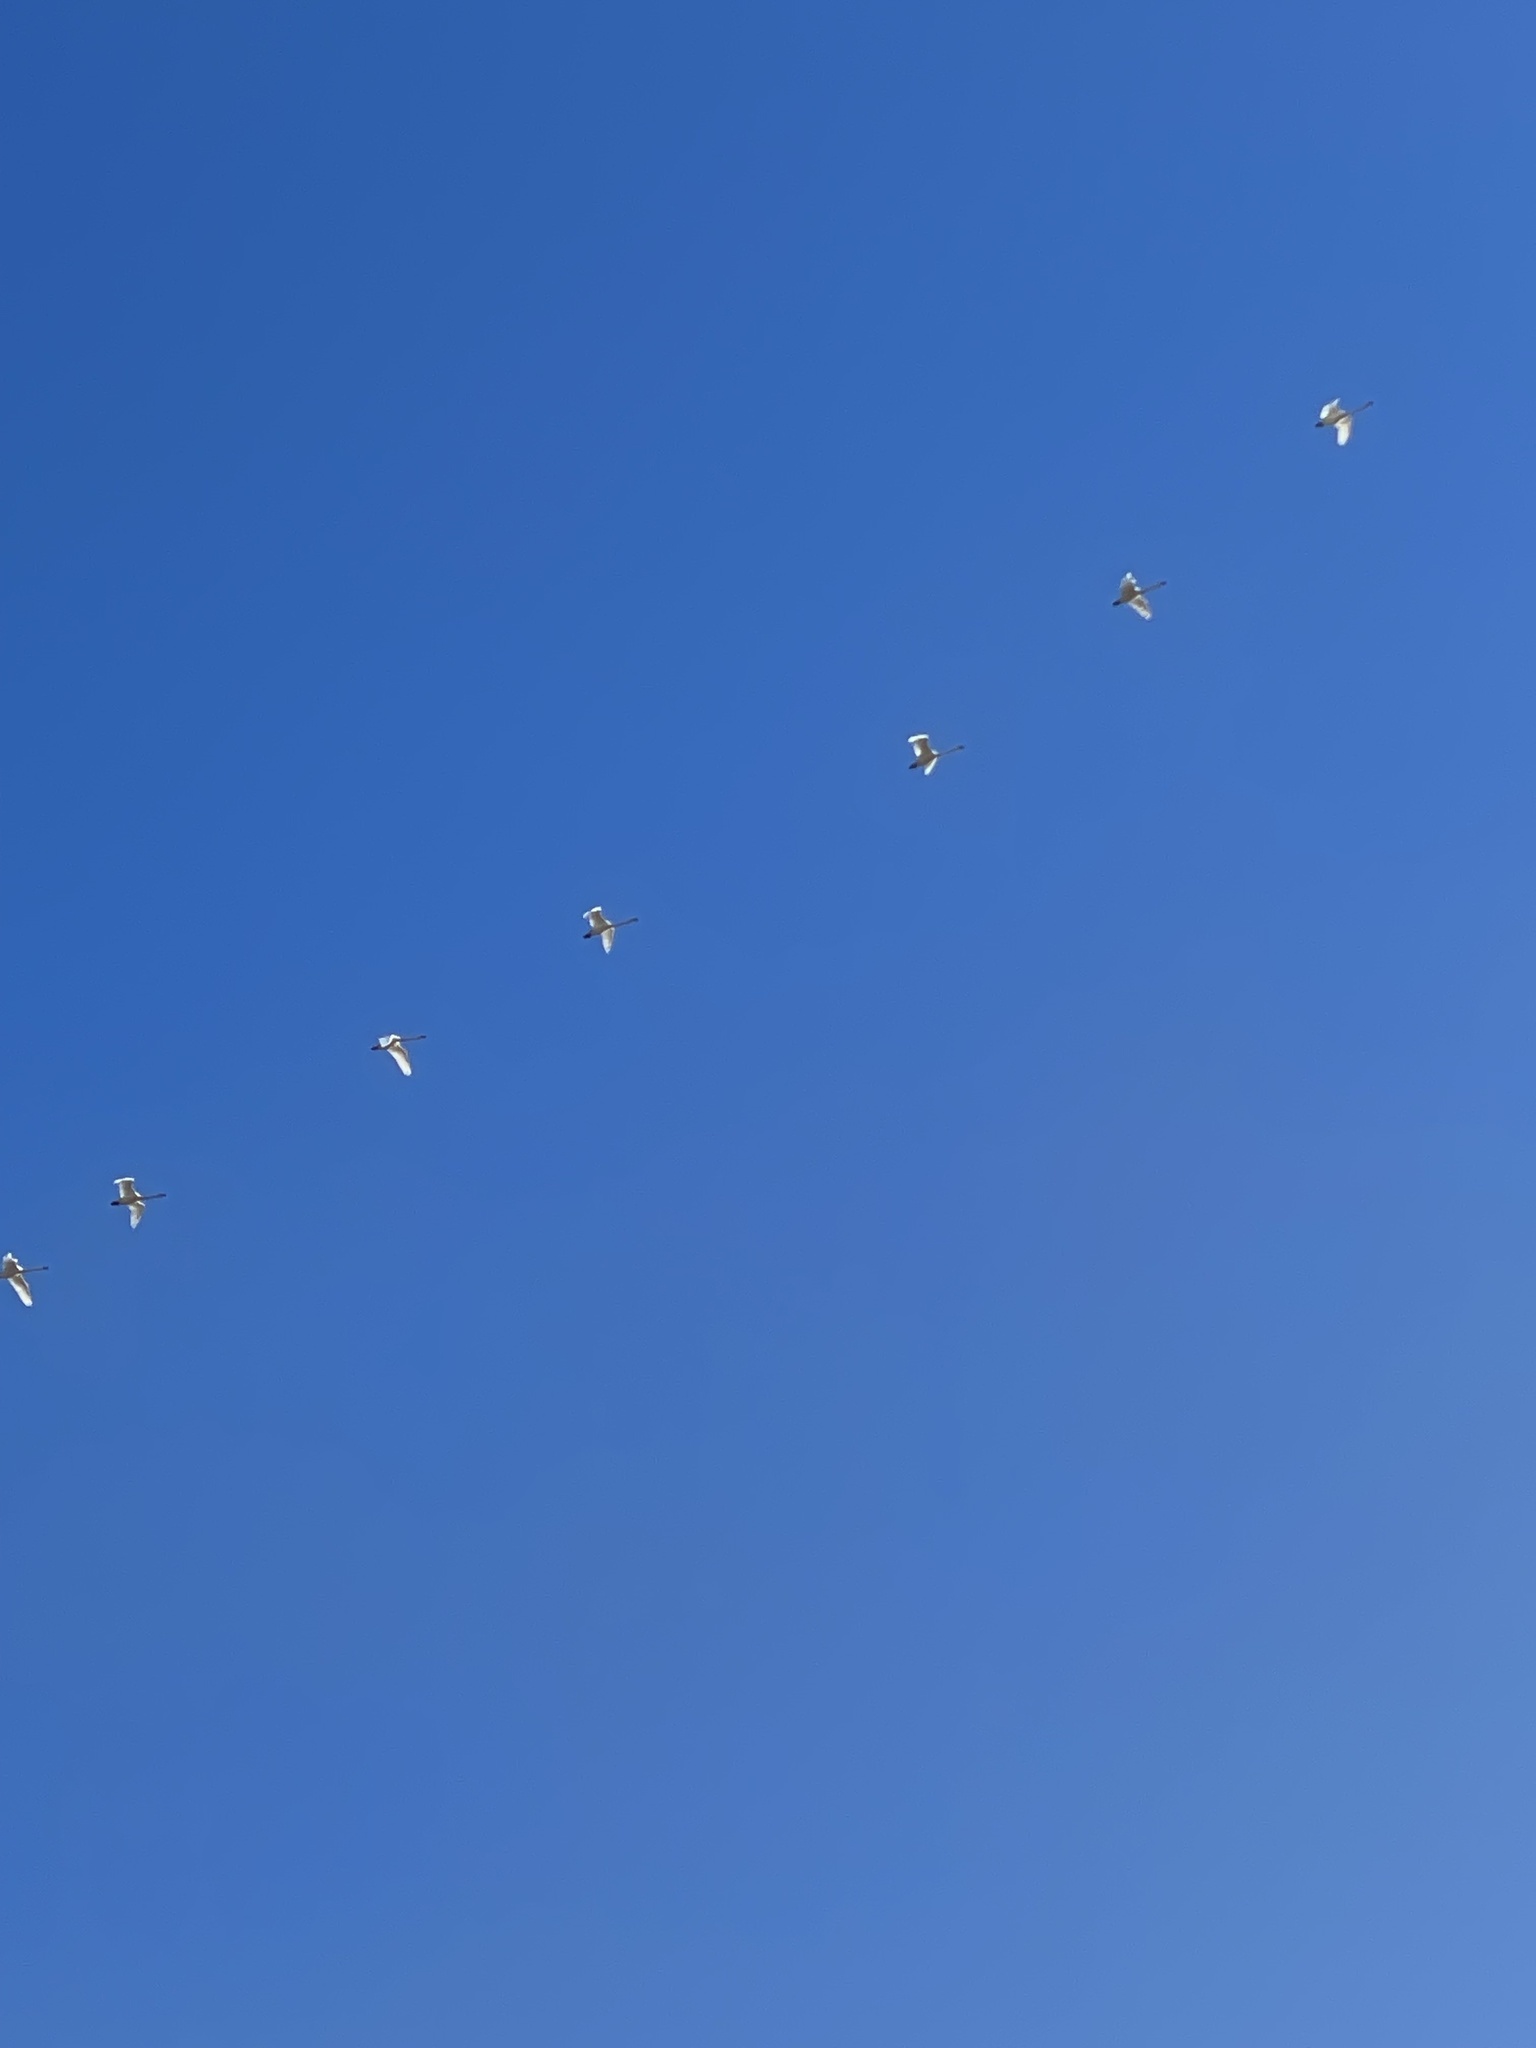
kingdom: Animalia
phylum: Chordata
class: Aves
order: Anseriformes
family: Anatidae
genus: Cygnus
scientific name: Cygnus columbianus
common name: Tundra swan
